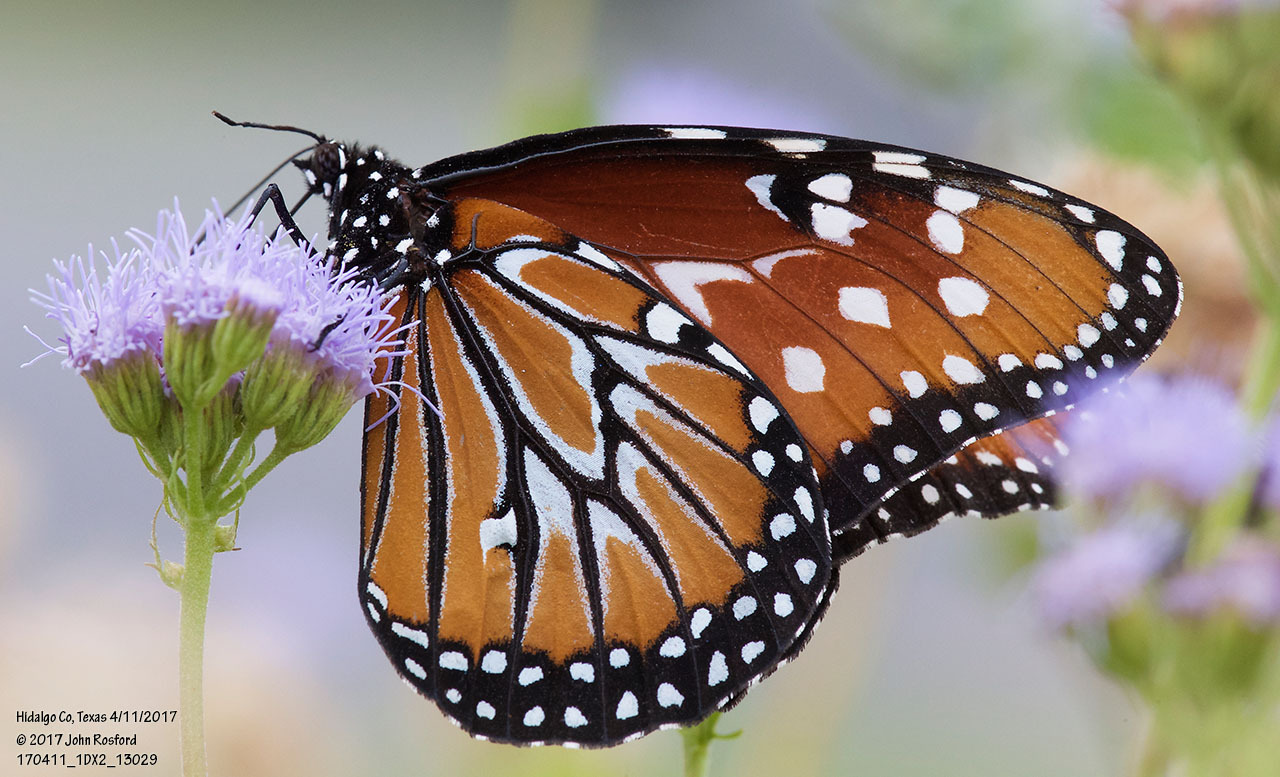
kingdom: Animalia
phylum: Arthropoda
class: Insecta
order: Lepidoptera
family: Nymphalidae
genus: Danaus
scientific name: Danaus gilippus
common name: Queen
